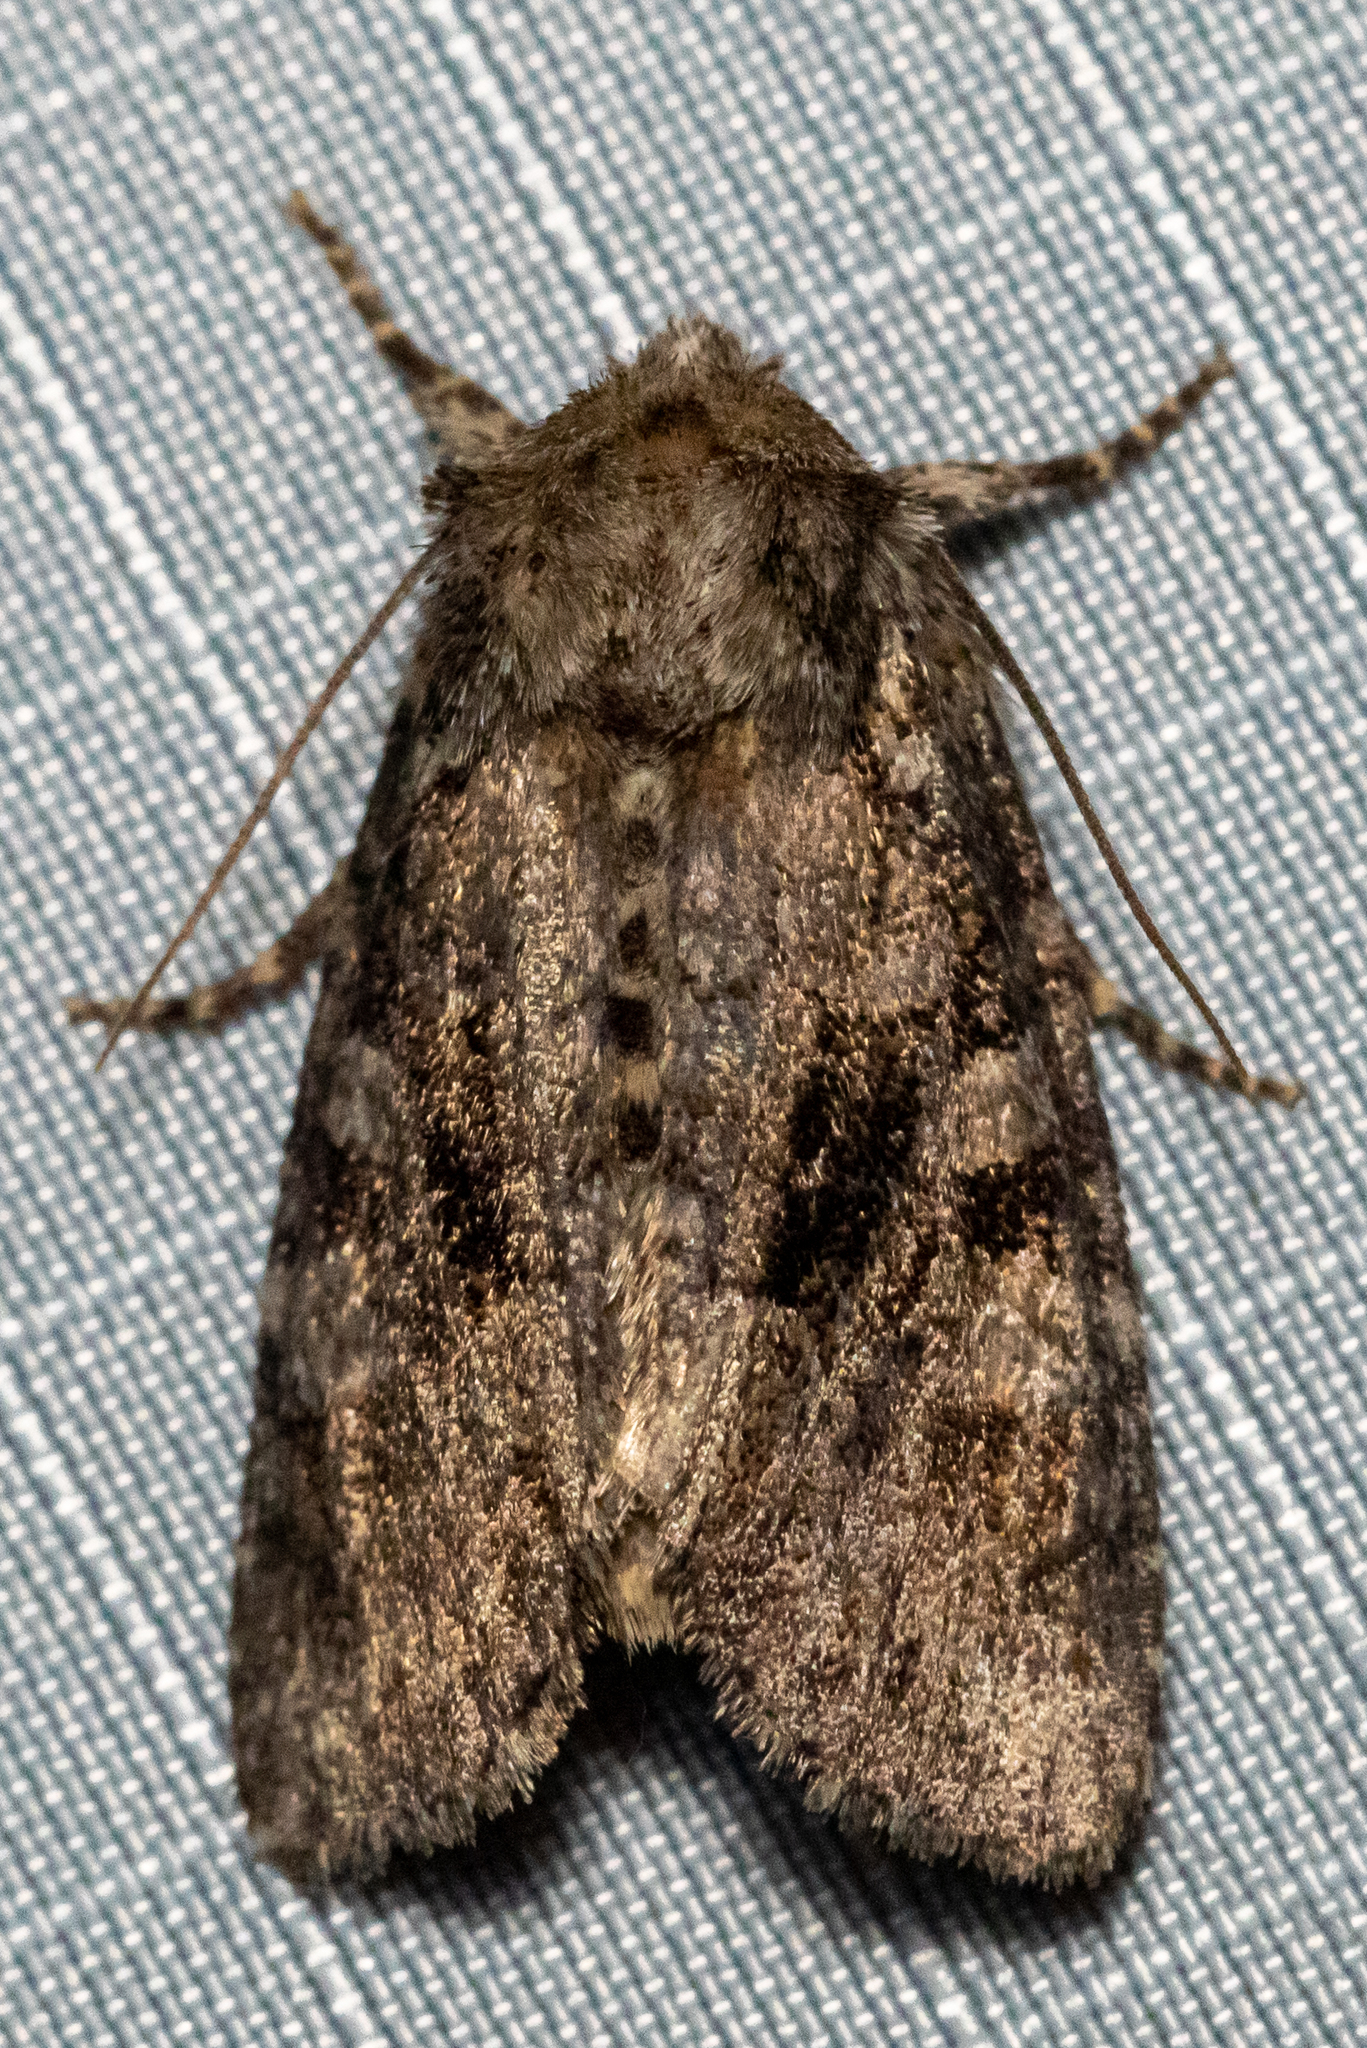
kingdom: Animalia
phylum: Arthropoda
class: Insecta
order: Lepidoptera
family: Noctuidae
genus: Phosphila
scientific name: Phosphila turbulenta
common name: Turbulent phosphila moth
